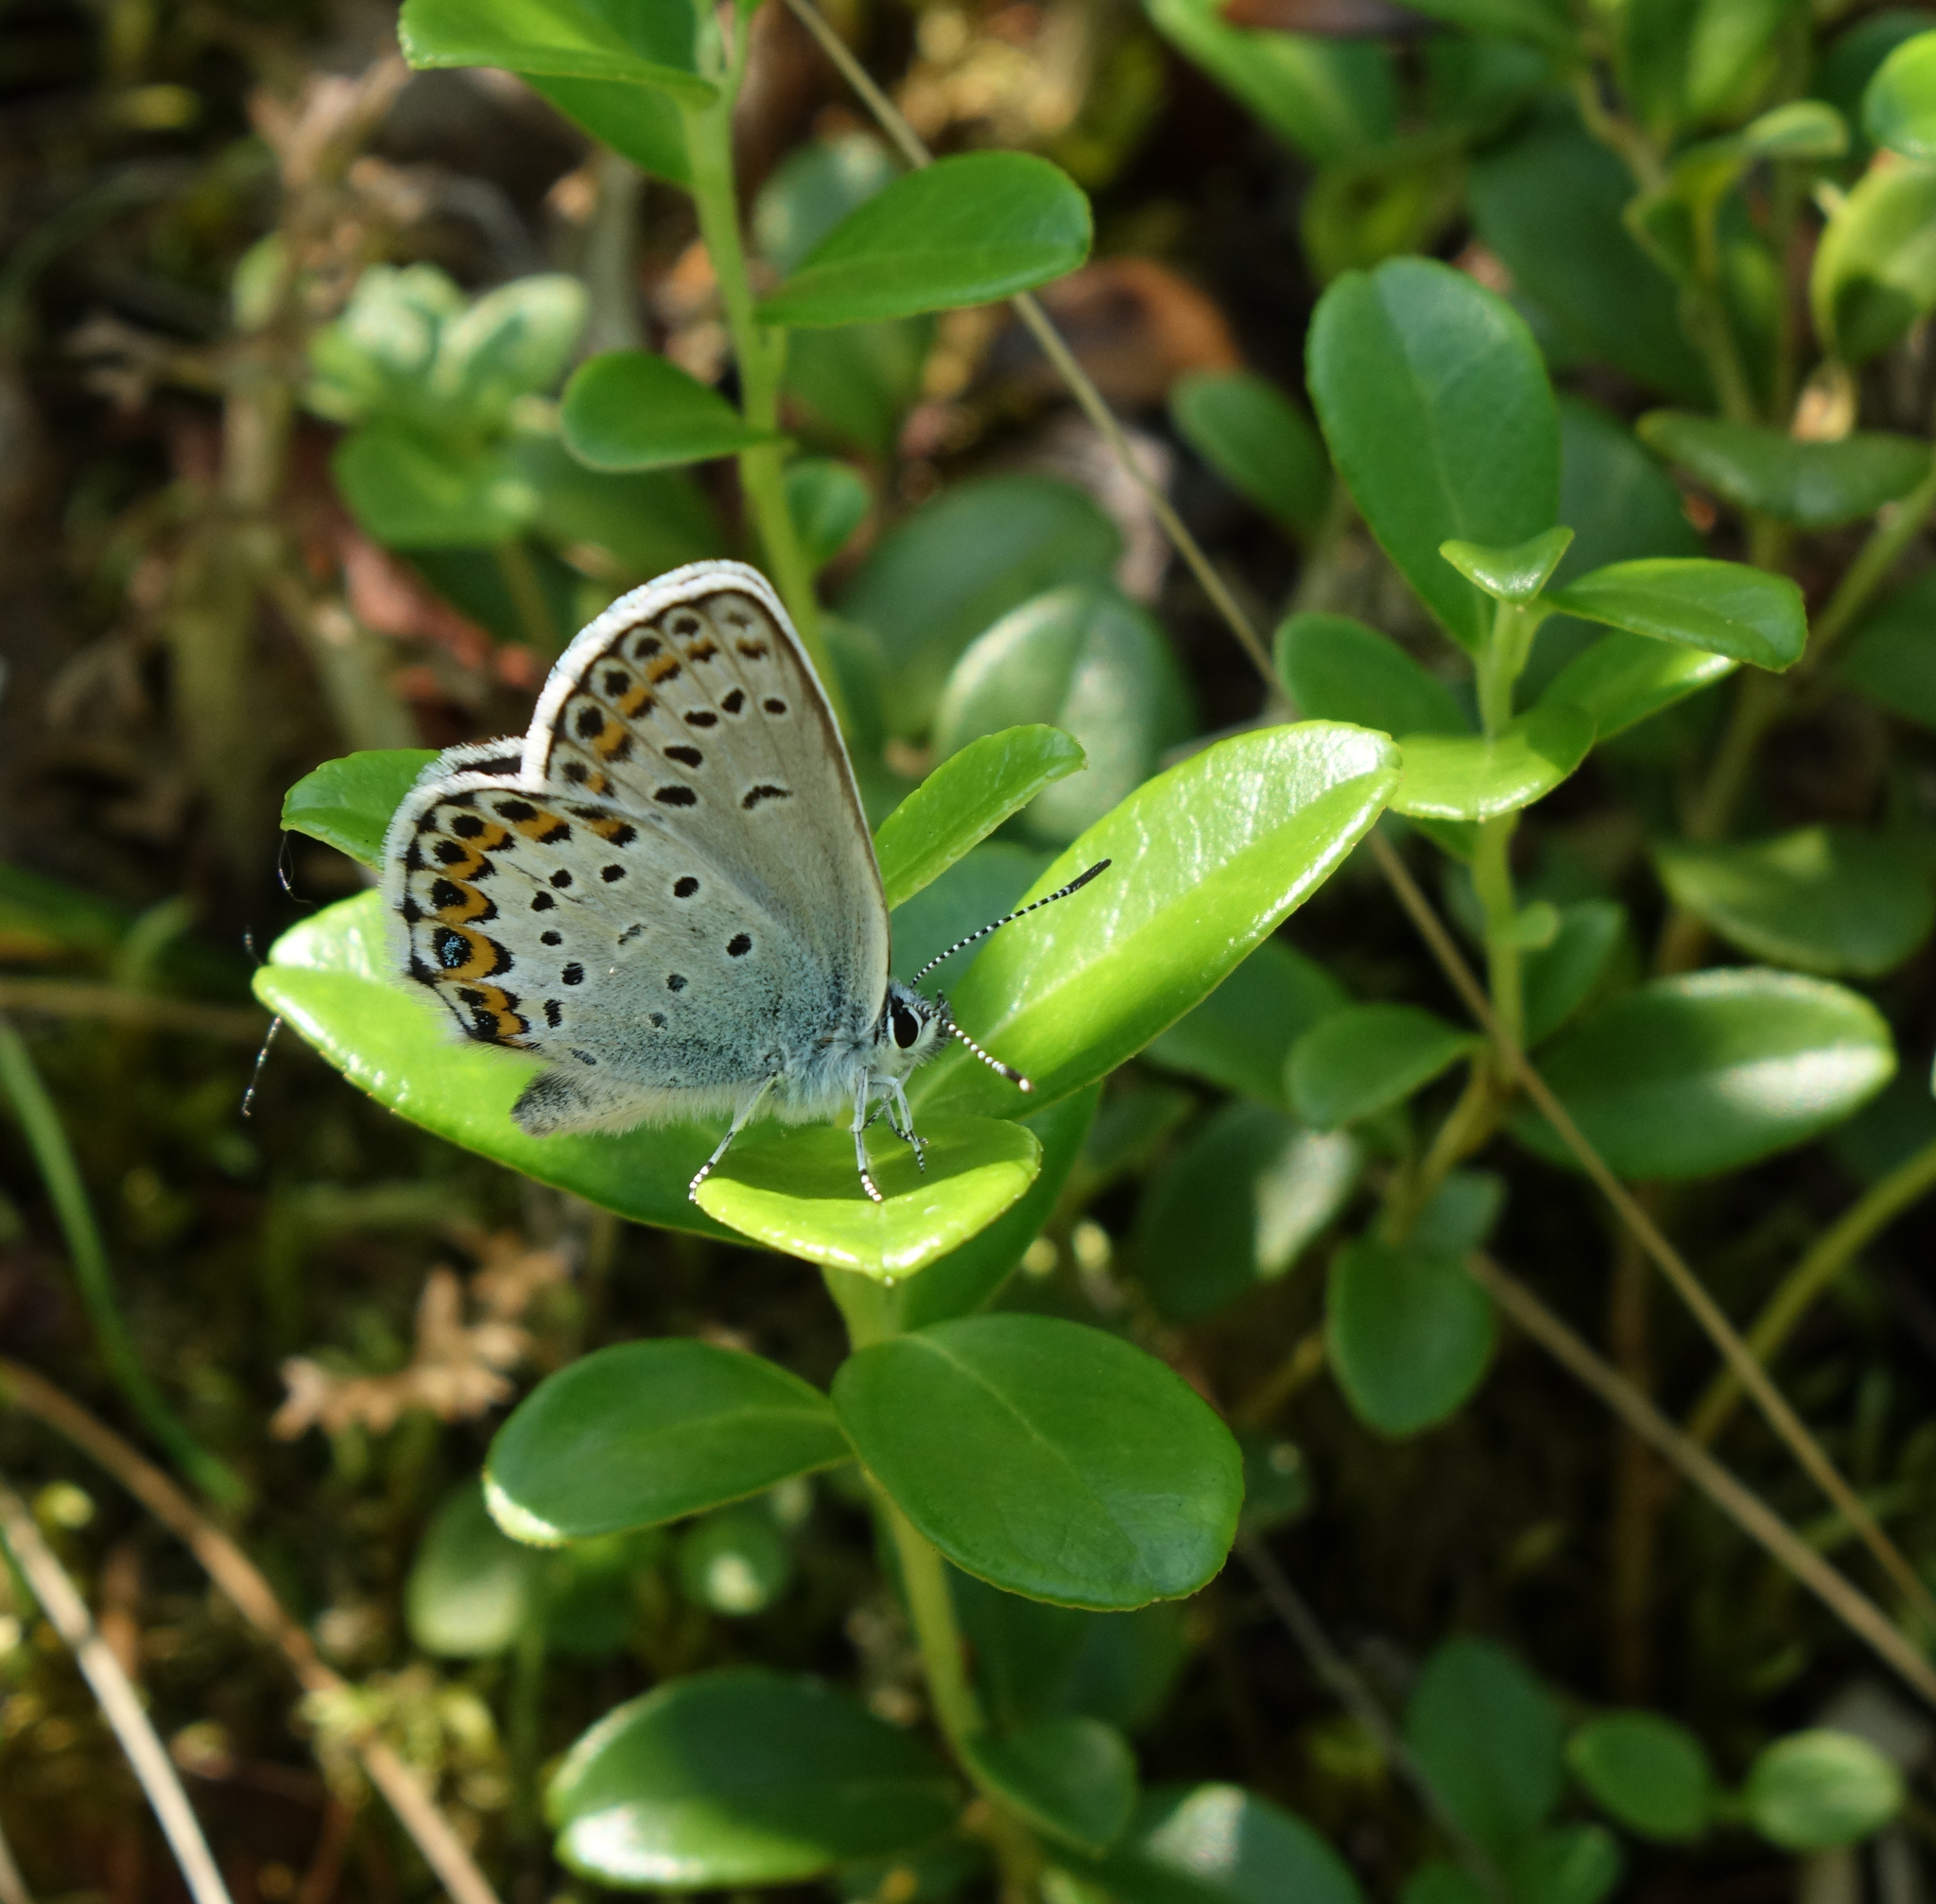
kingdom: Plantae
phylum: Tracheophyta
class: Magnoliopsida
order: Ericales
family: Ericaceae
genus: Vaccinium
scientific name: Vaccinium vitis-idaea
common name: Cowberry
